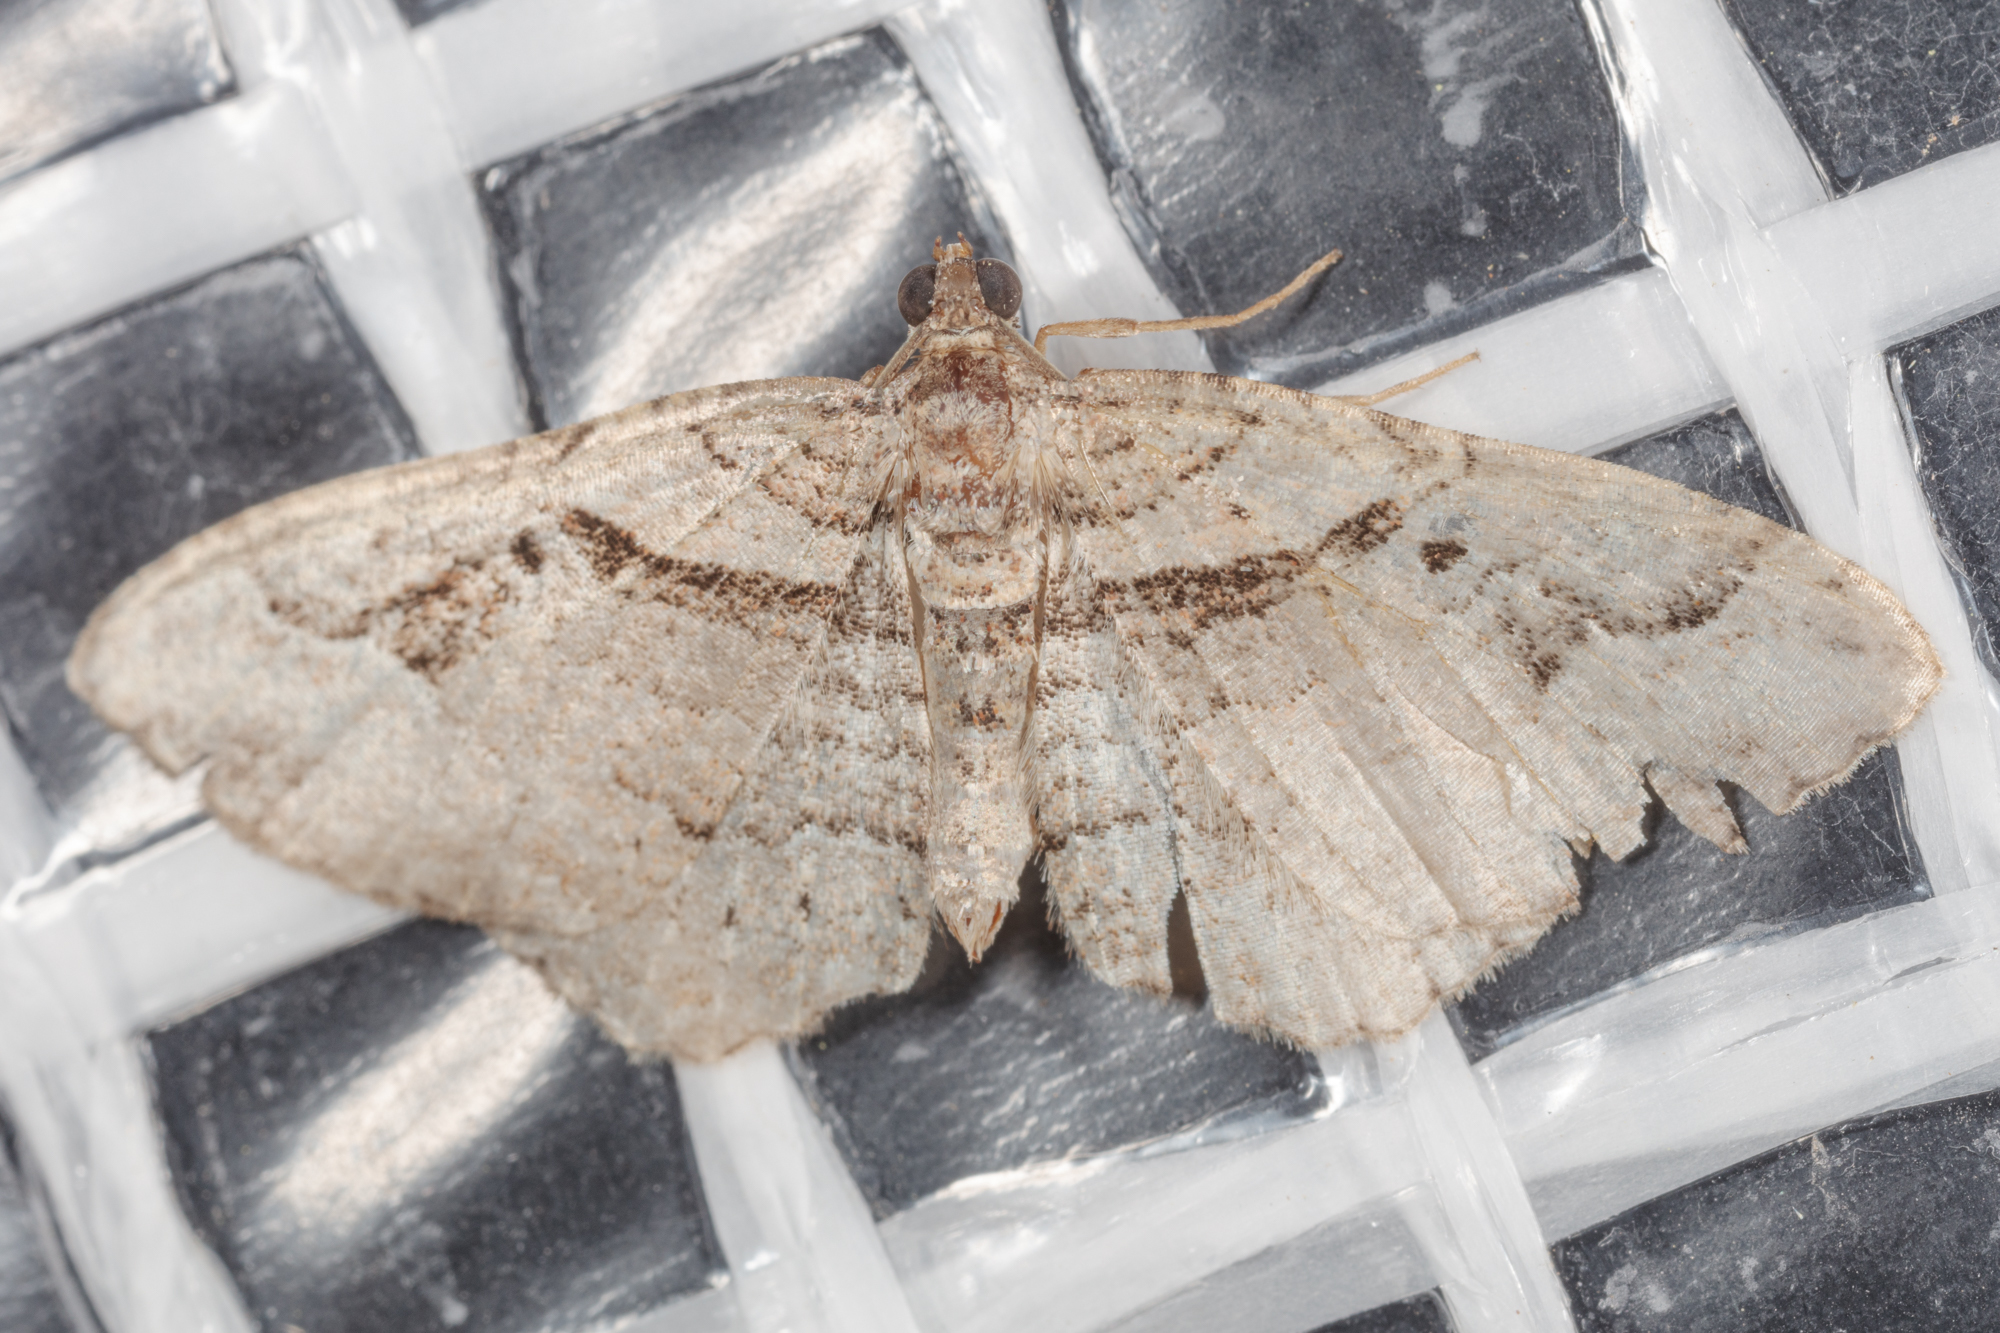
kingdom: Animalia
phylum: Arthropoda
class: Insecta
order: Lepidoptera
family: Geometridae
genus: Costaconvexa
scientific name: Costaconvexa centrostrigaria
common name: Bent-line carpet
